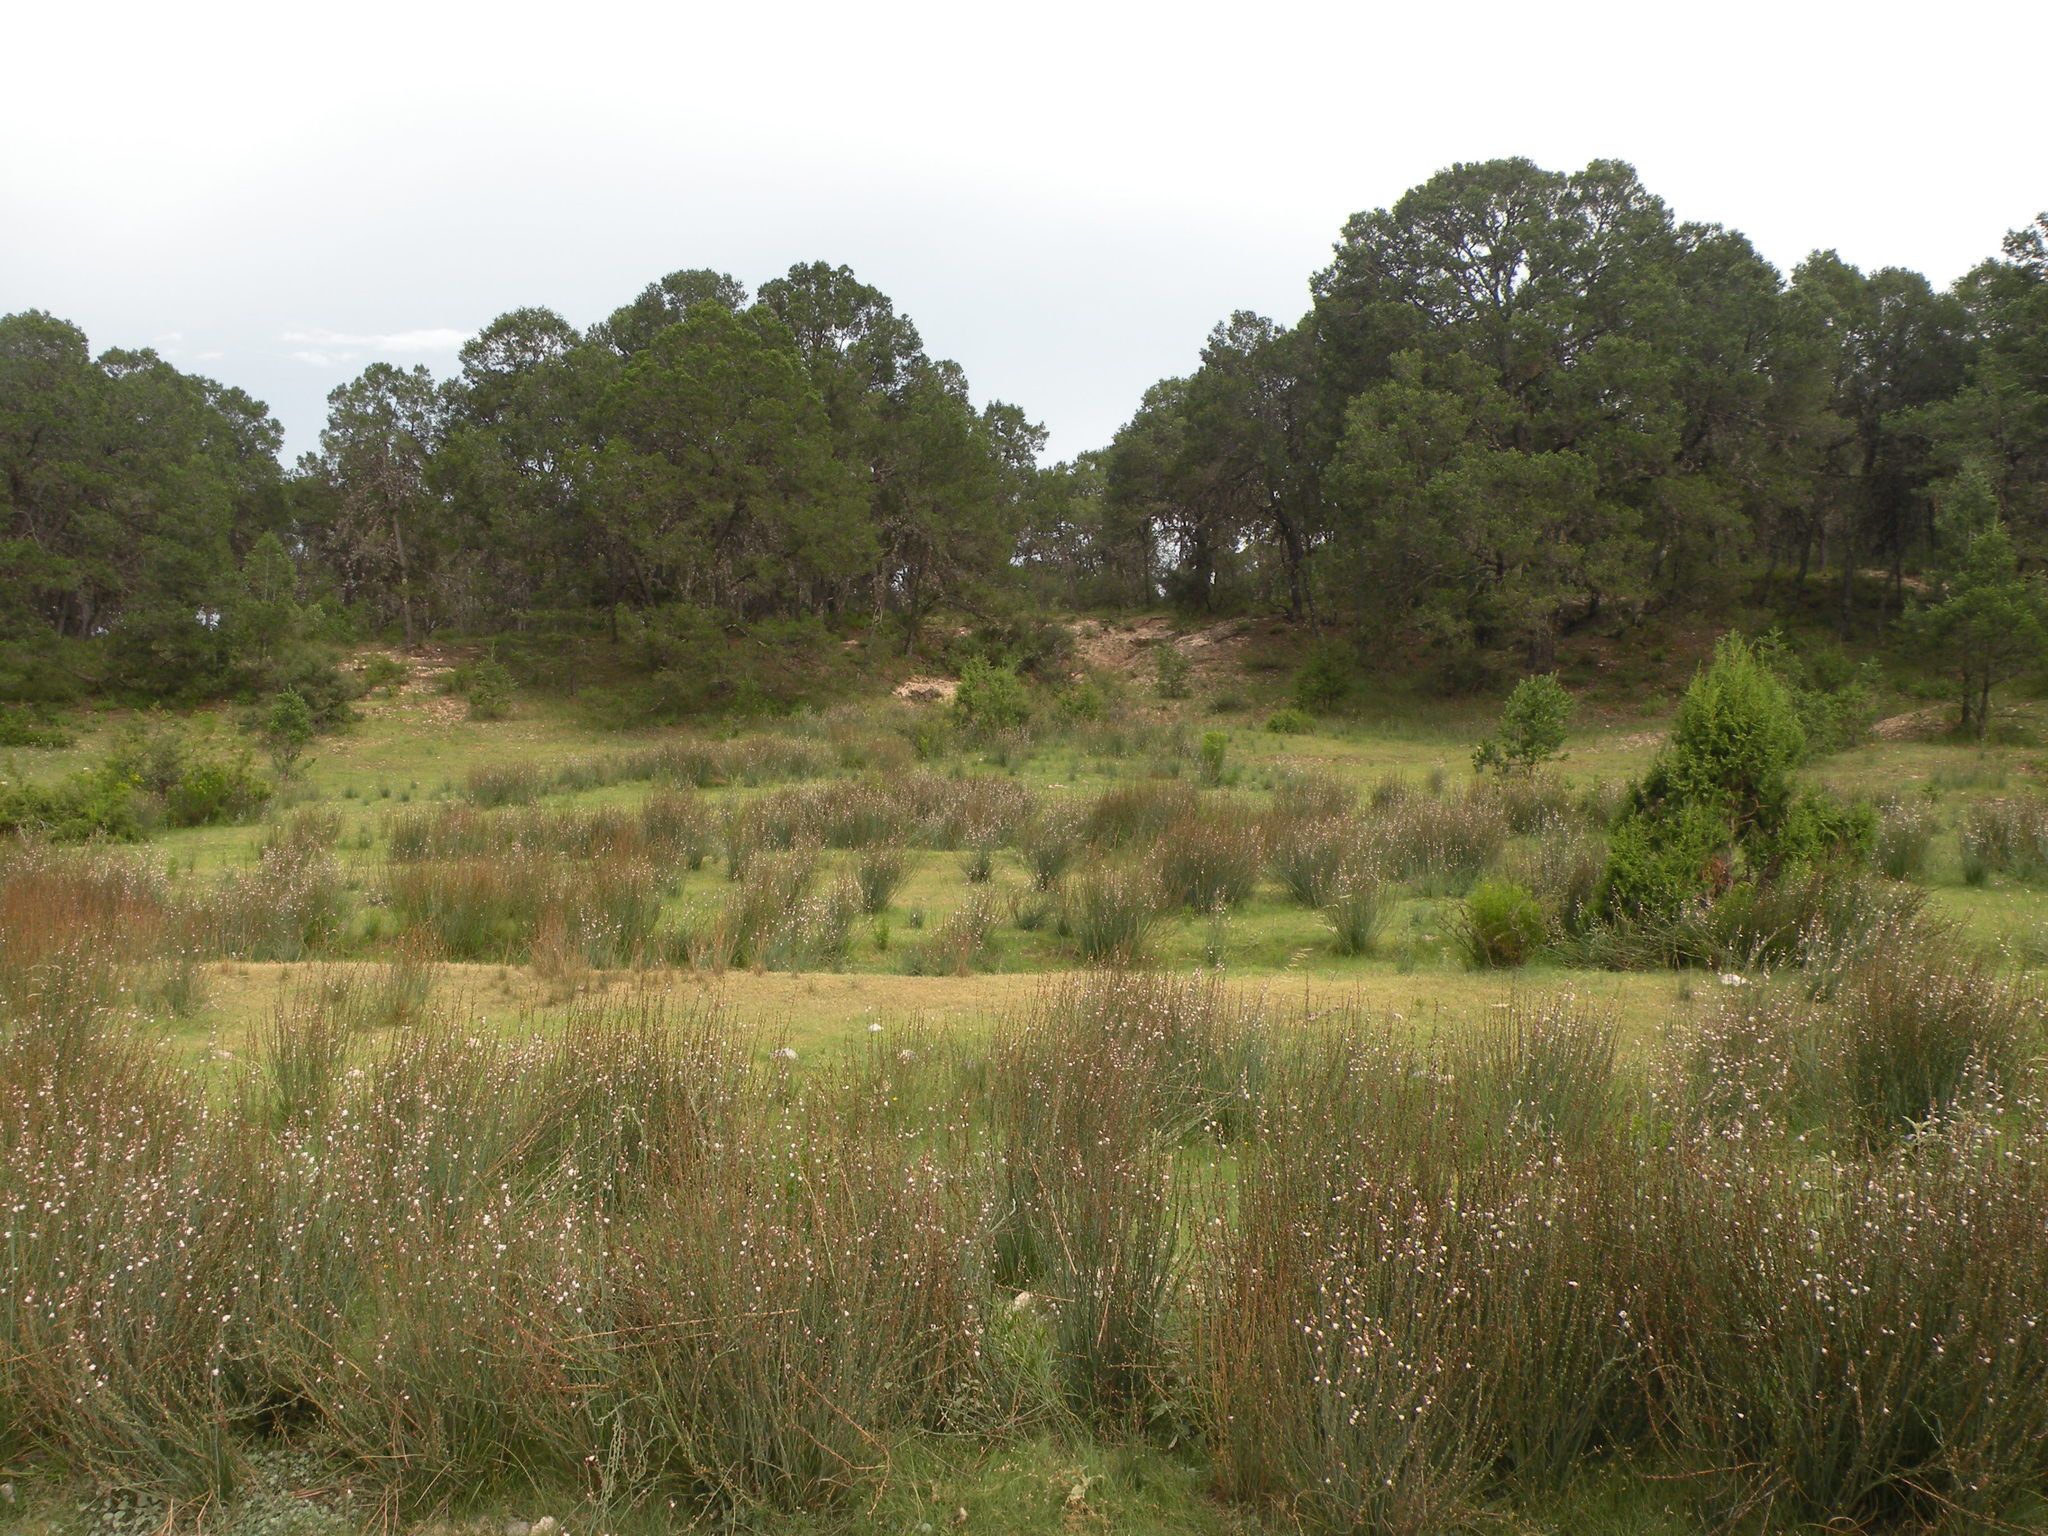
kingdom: Plantae
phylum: Tracheophyta
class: Liliopsida
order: Asparagales
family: Asphodelaceae
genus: Asphodelus
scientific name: Asphodelus fistulosus
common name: Onionweed
